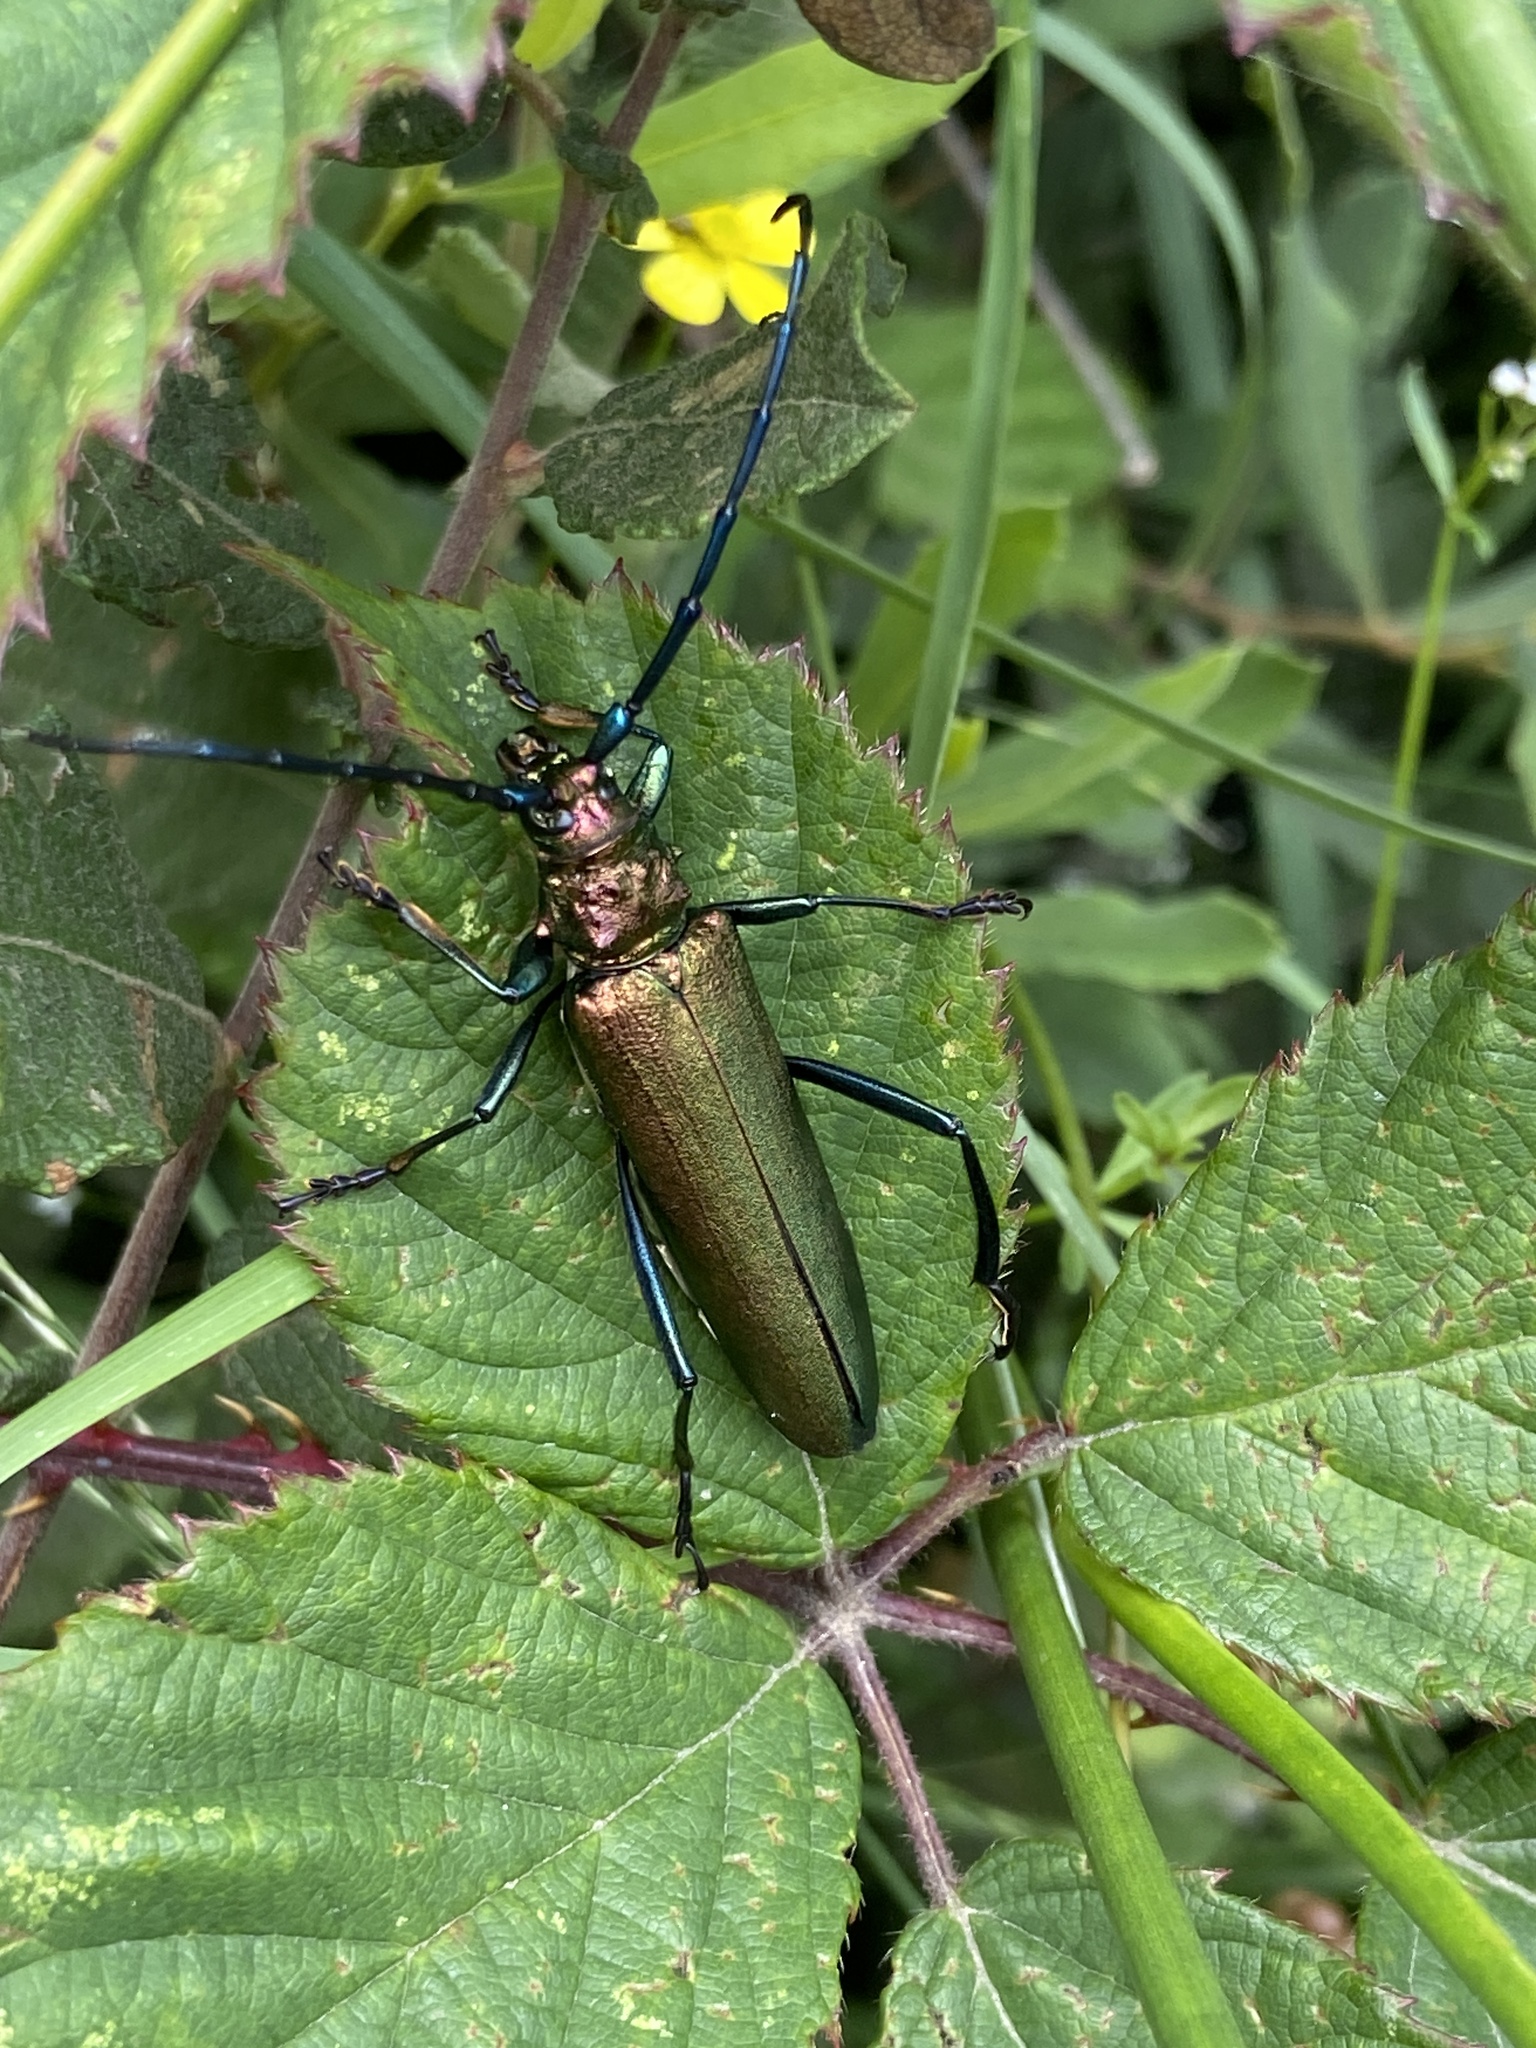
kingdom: Animalia
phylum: Arthropoda
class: Insecta
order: Coleoptera
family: Cerambycidae
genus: Aromia
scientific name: Aromia moschata
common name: Musk beetle
